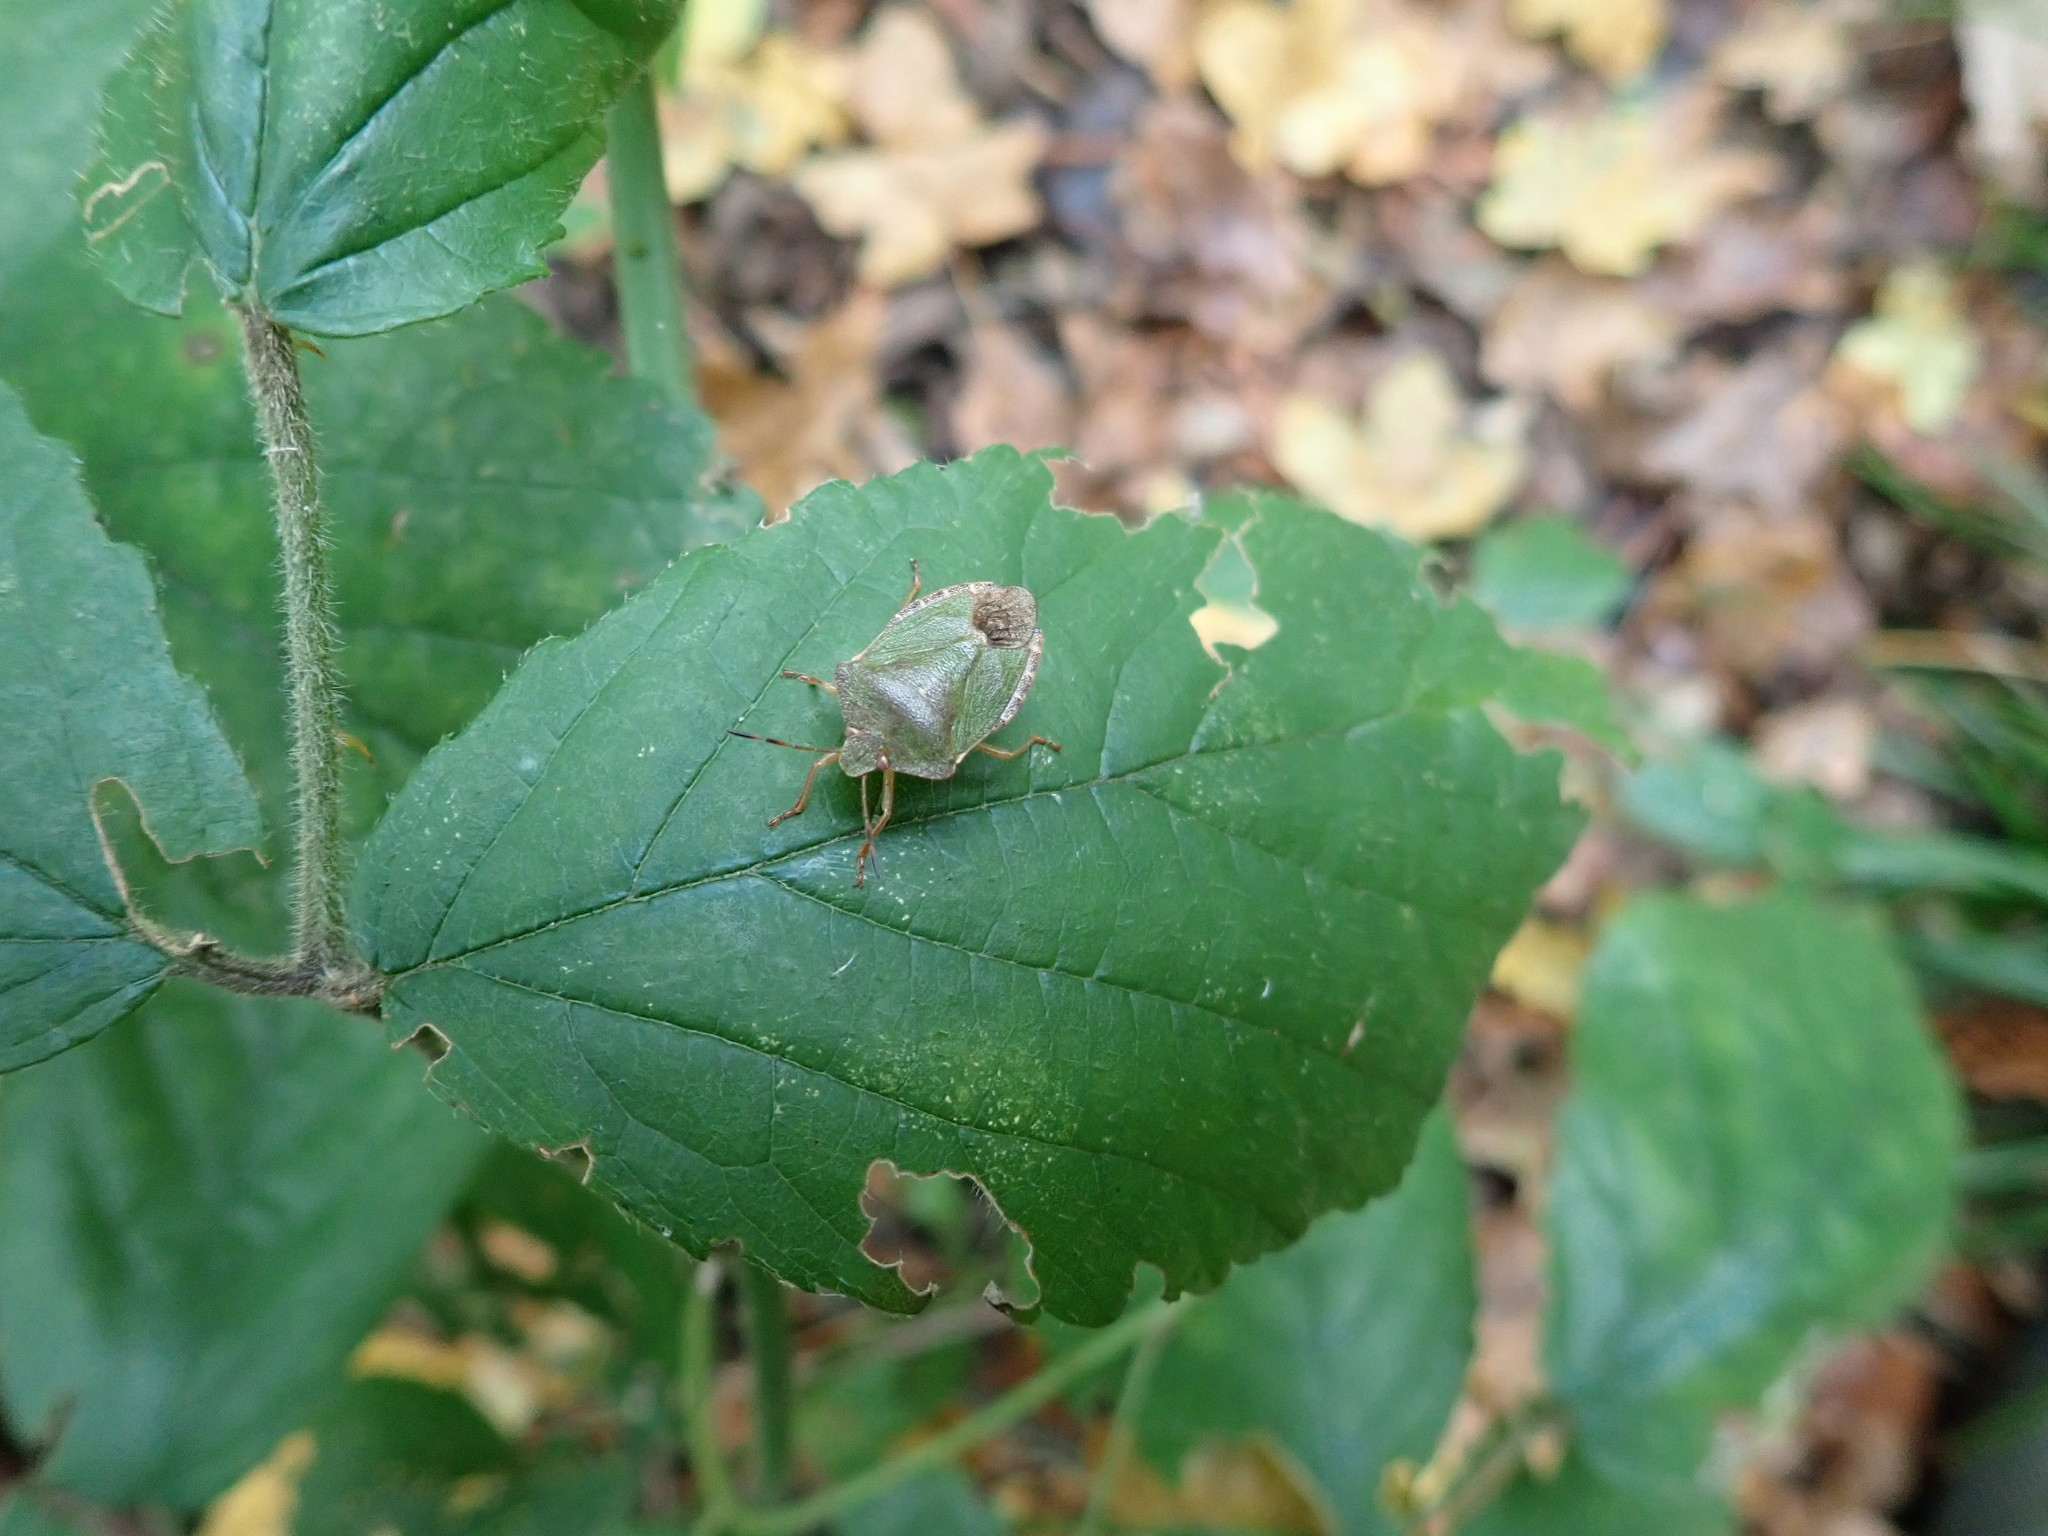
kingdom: Animalia
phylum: Arthropoda
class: Insecta
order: Hemiptera
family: Pentatomidae
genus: Palomena
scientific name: Palomena prasina
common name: Green shieldbug
